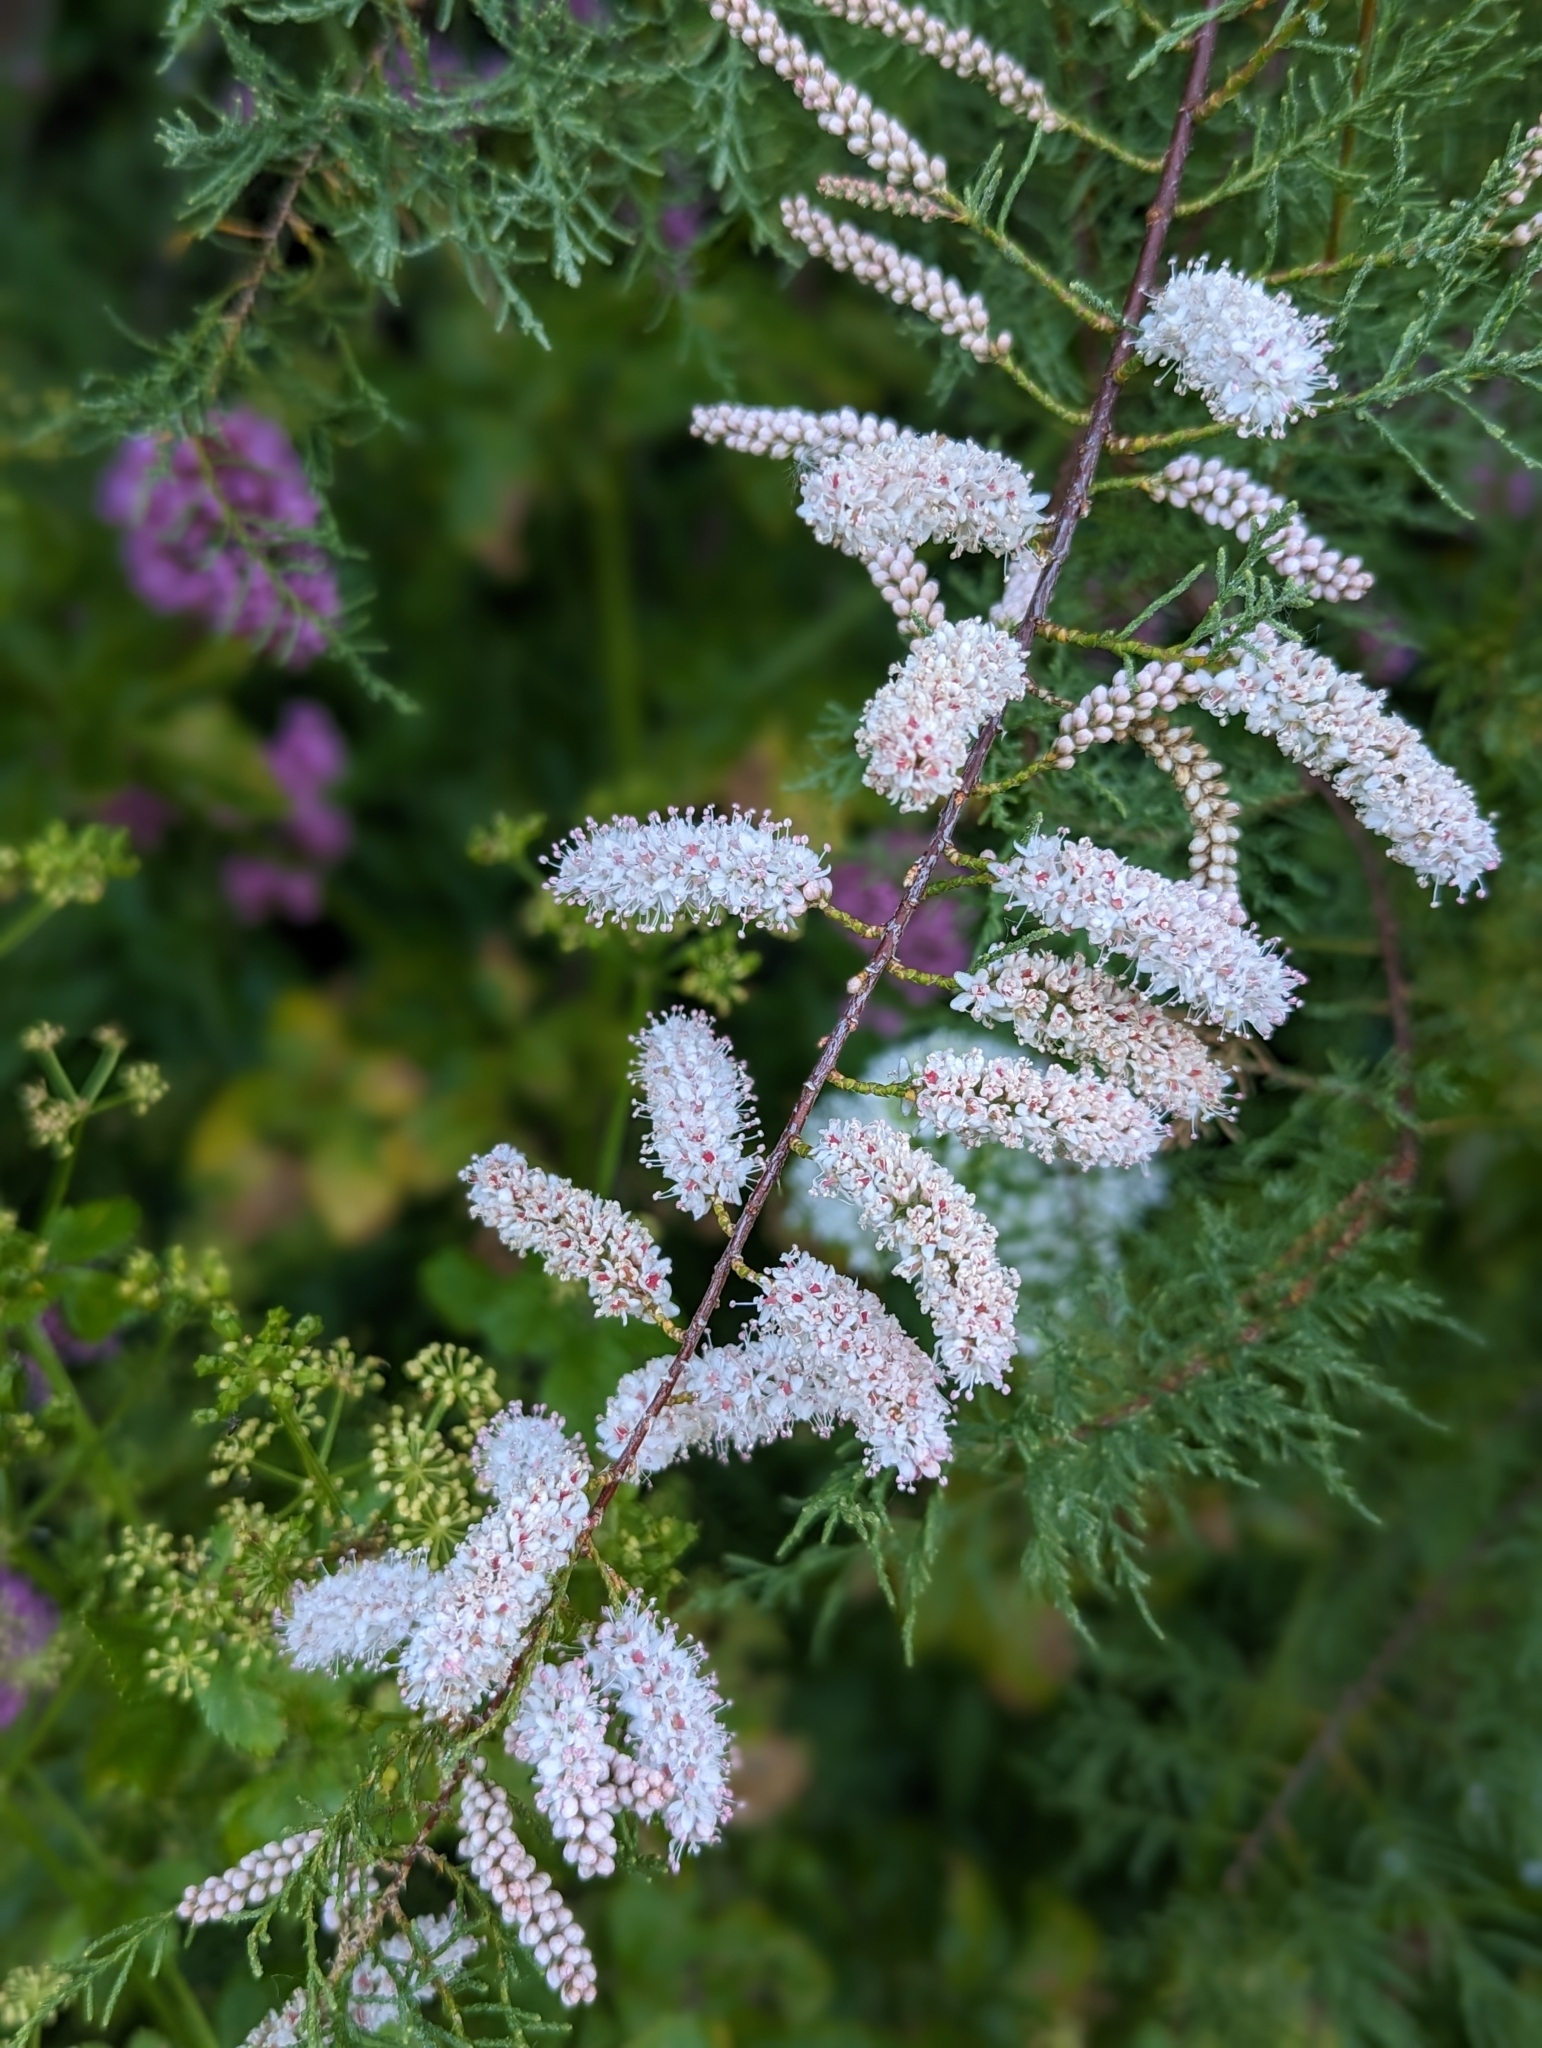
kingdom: Plantae
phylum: Tracheophyta
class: Magnoliopsida
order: Caryophyllales
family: Tamaricaceae
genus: Tamarix
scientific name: Tamarix gallica
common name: Tamarisk
